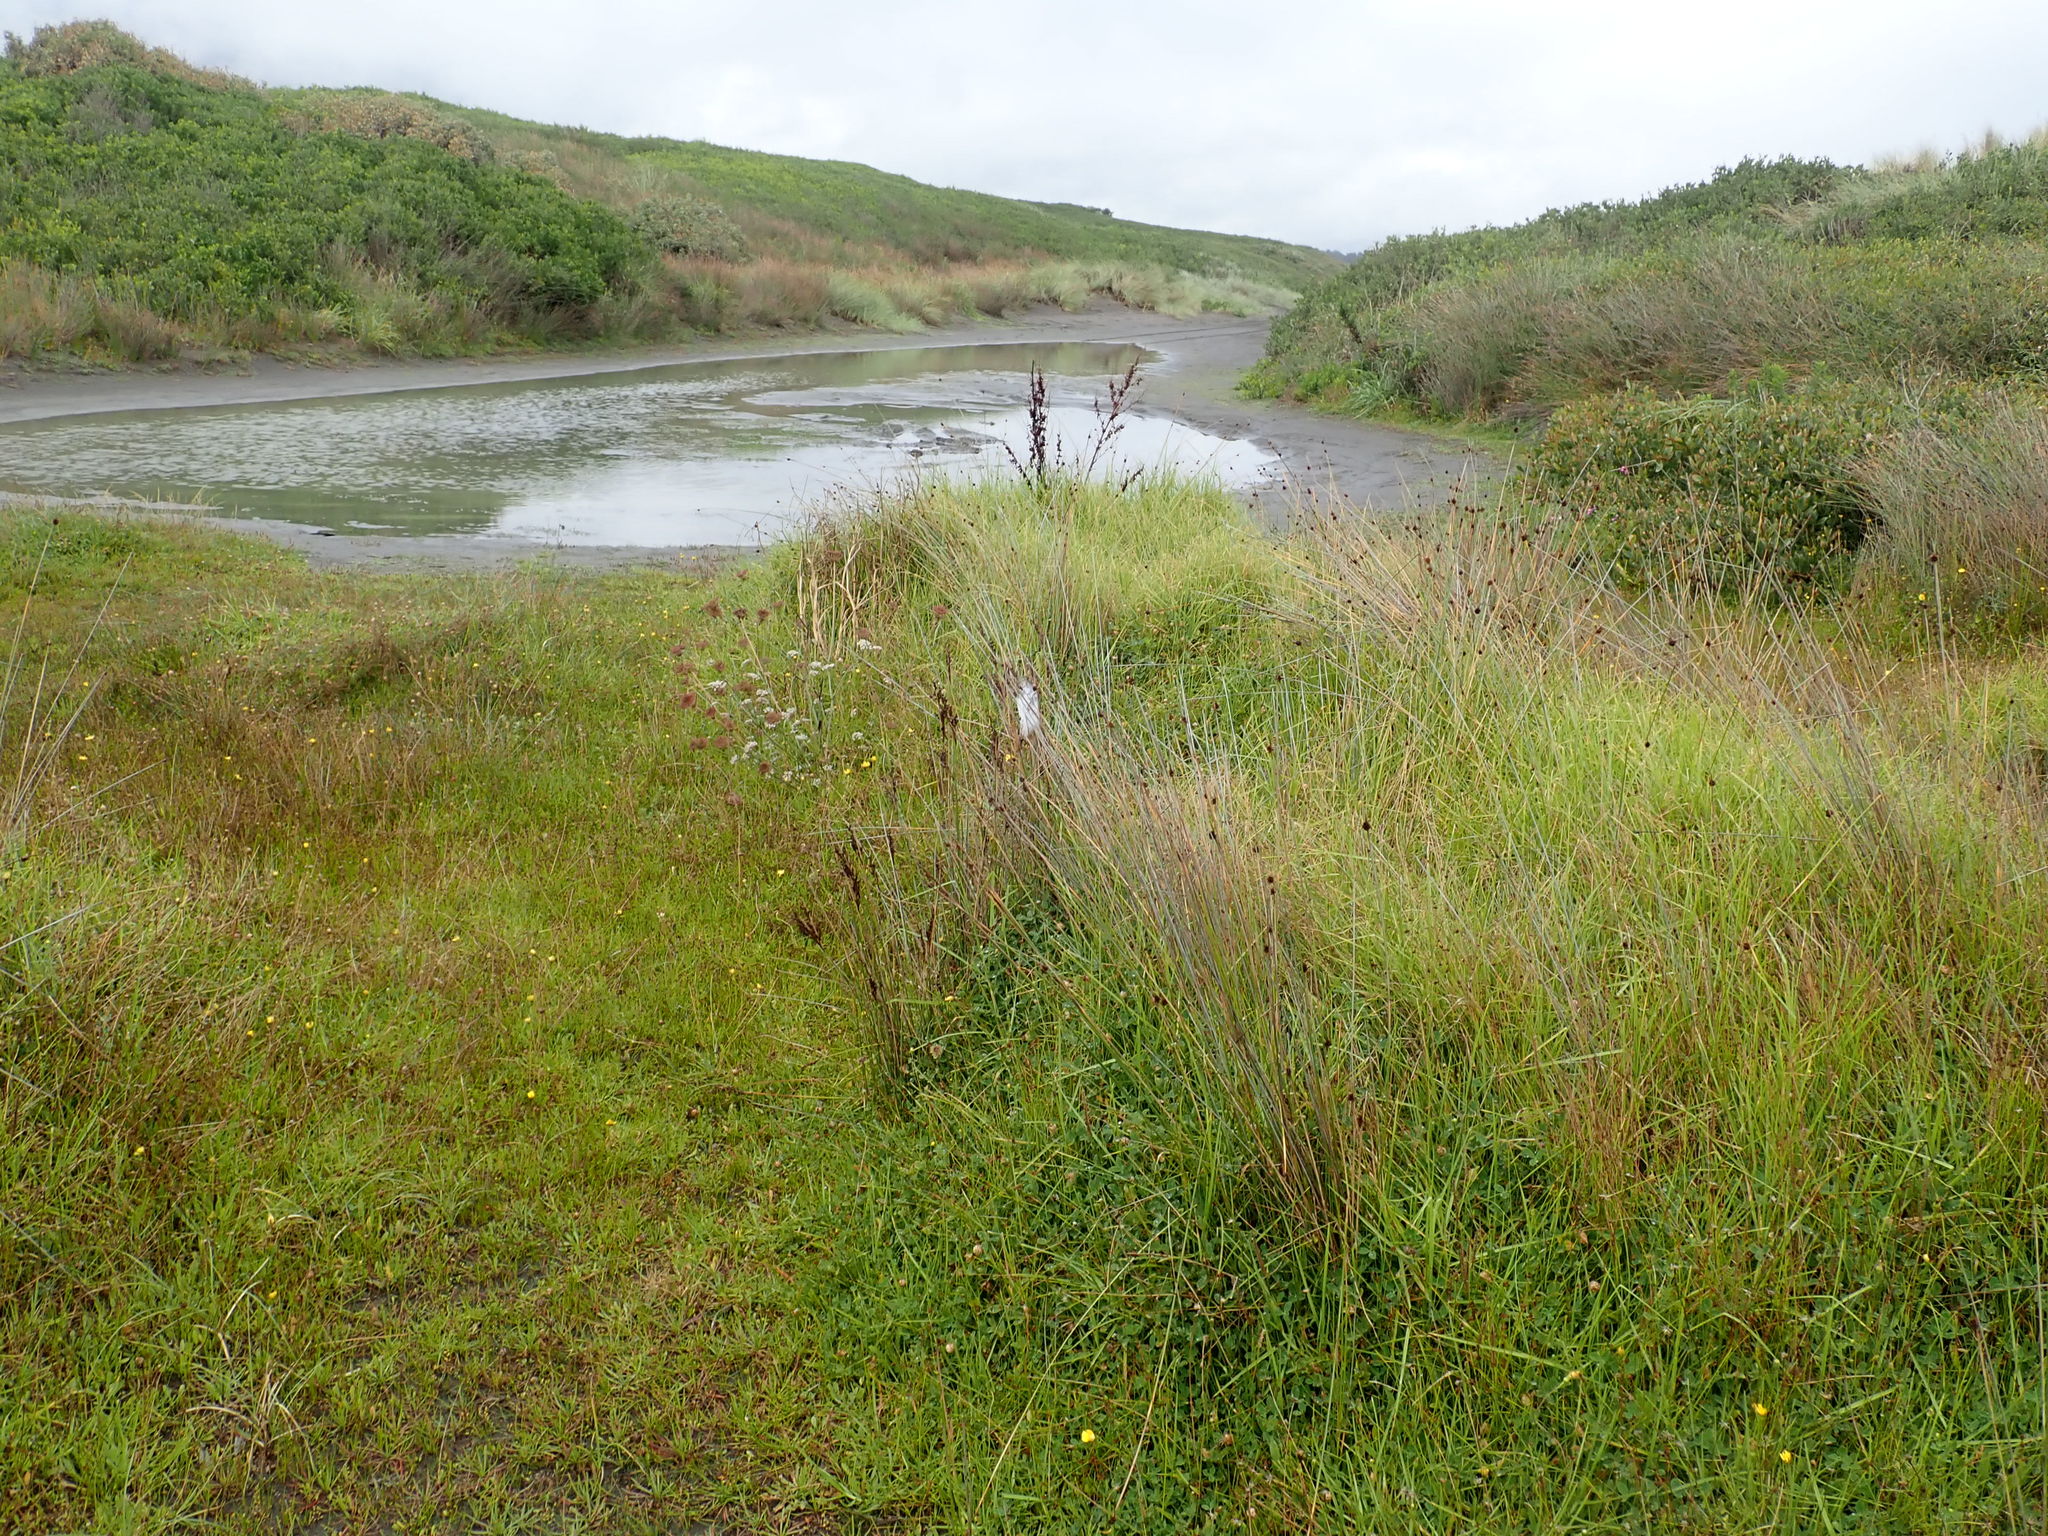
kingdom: Animalia
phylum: Arthropoda
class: Arachnida
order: Araneae
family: Pisauridae
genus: Dolomedes
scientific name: Dolomedes minor
